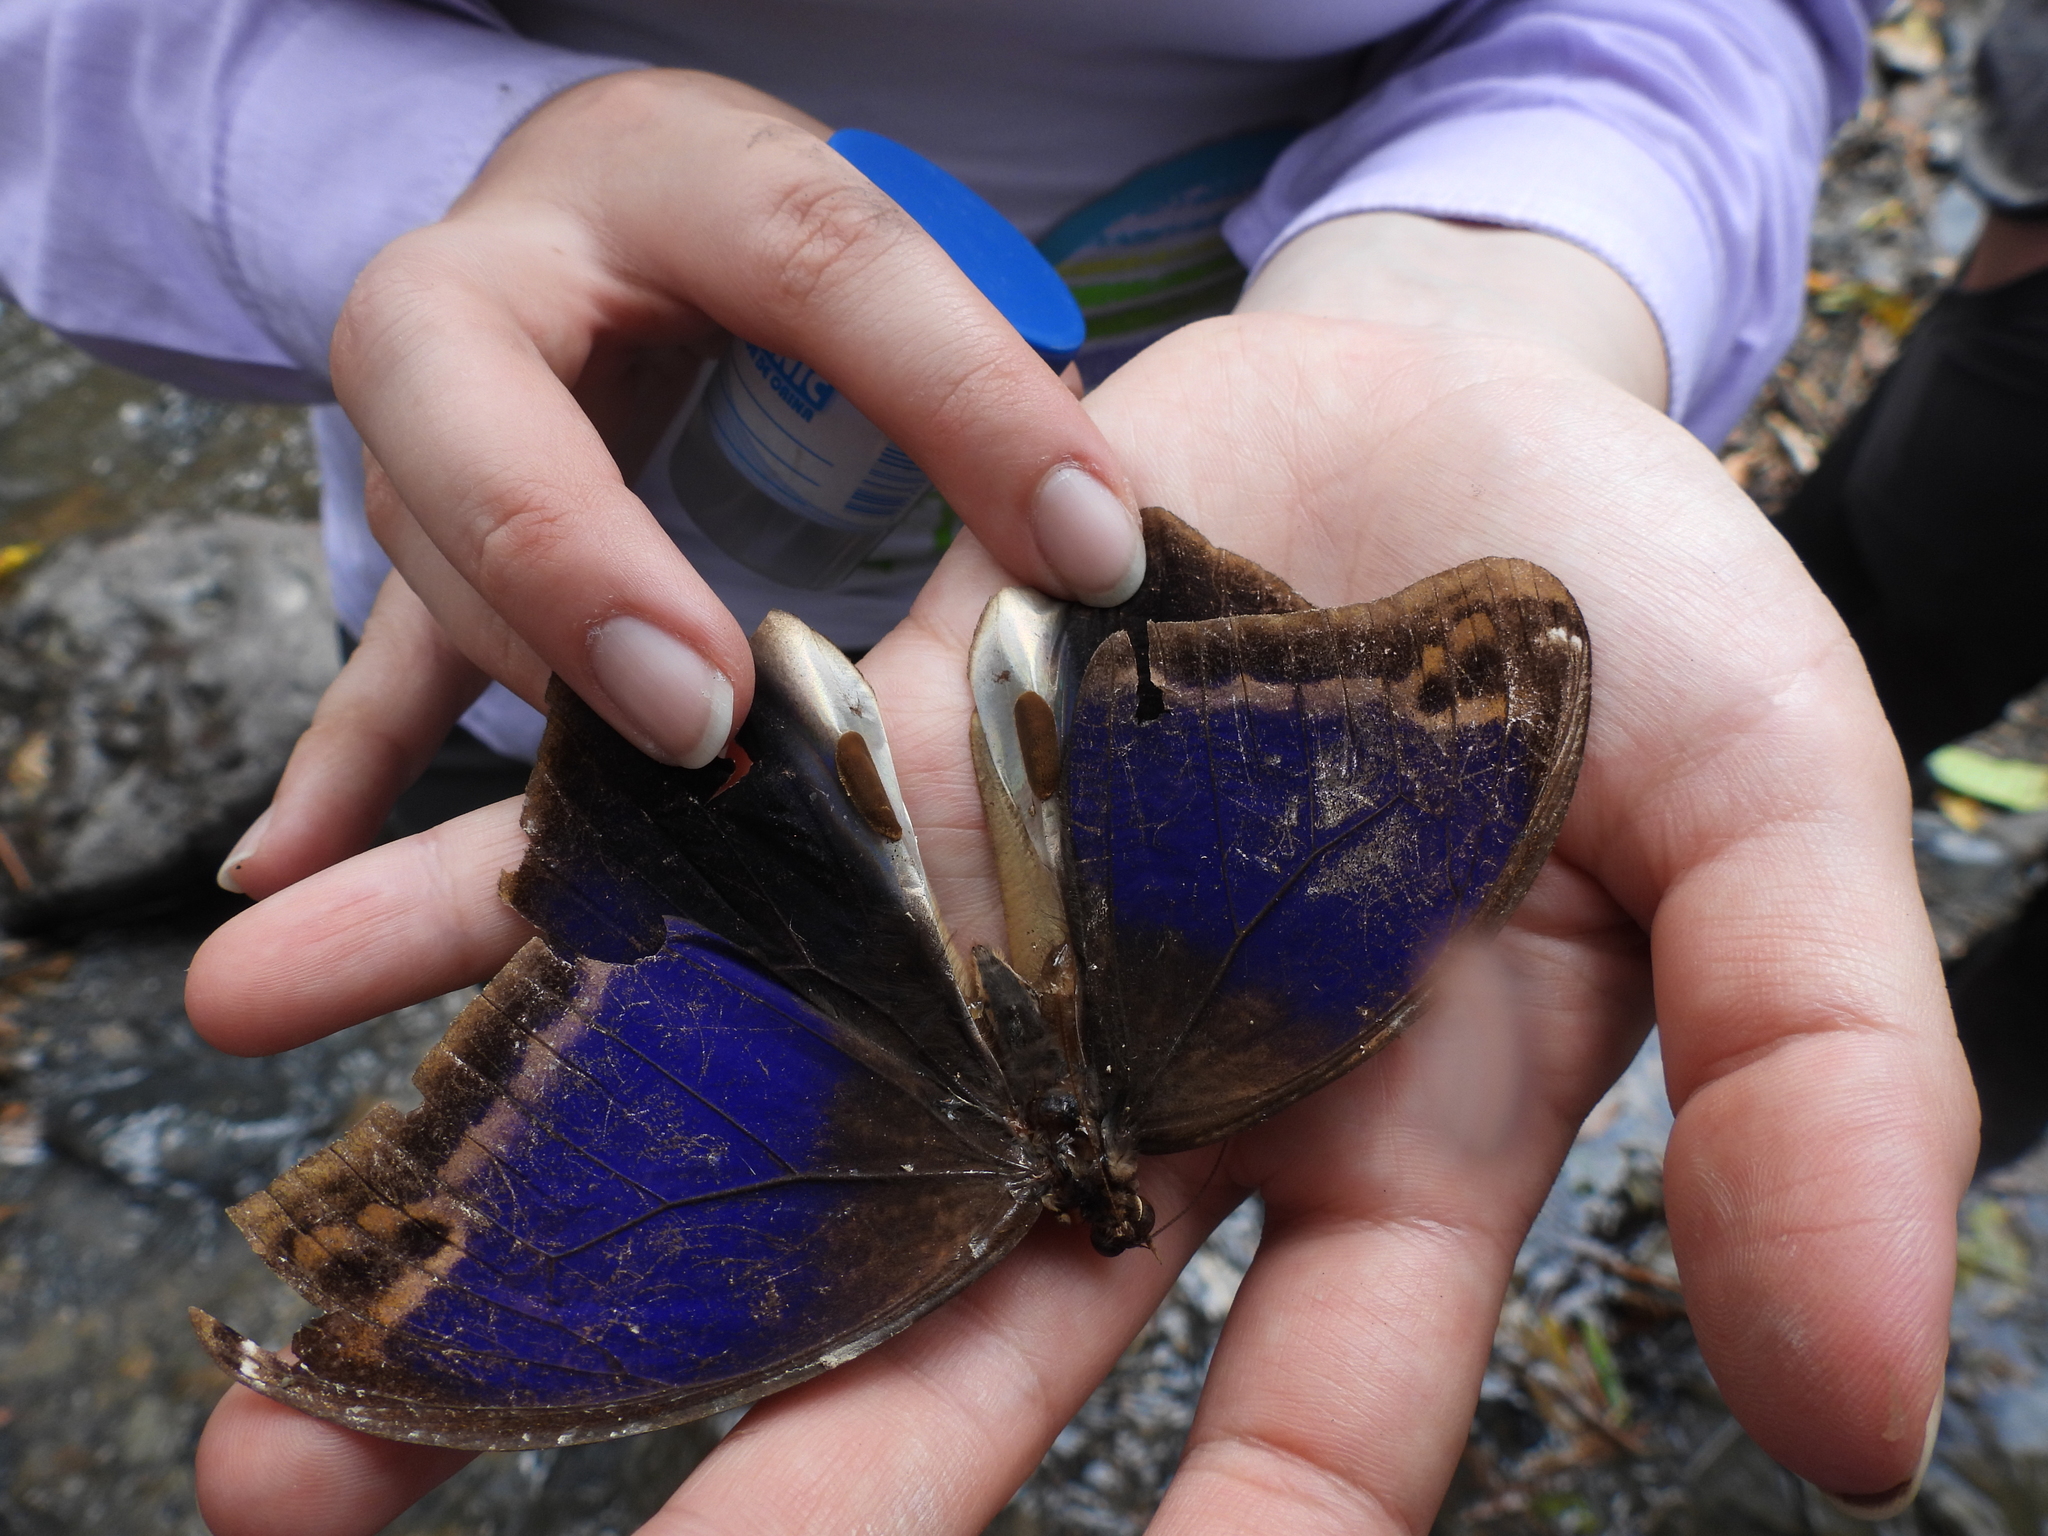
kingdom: Animalia
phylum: Arthropoda
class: Insecta
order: Lepidoptera
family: Nymphalidae
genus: Eryphanis
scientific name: Eryphanis polyxena
